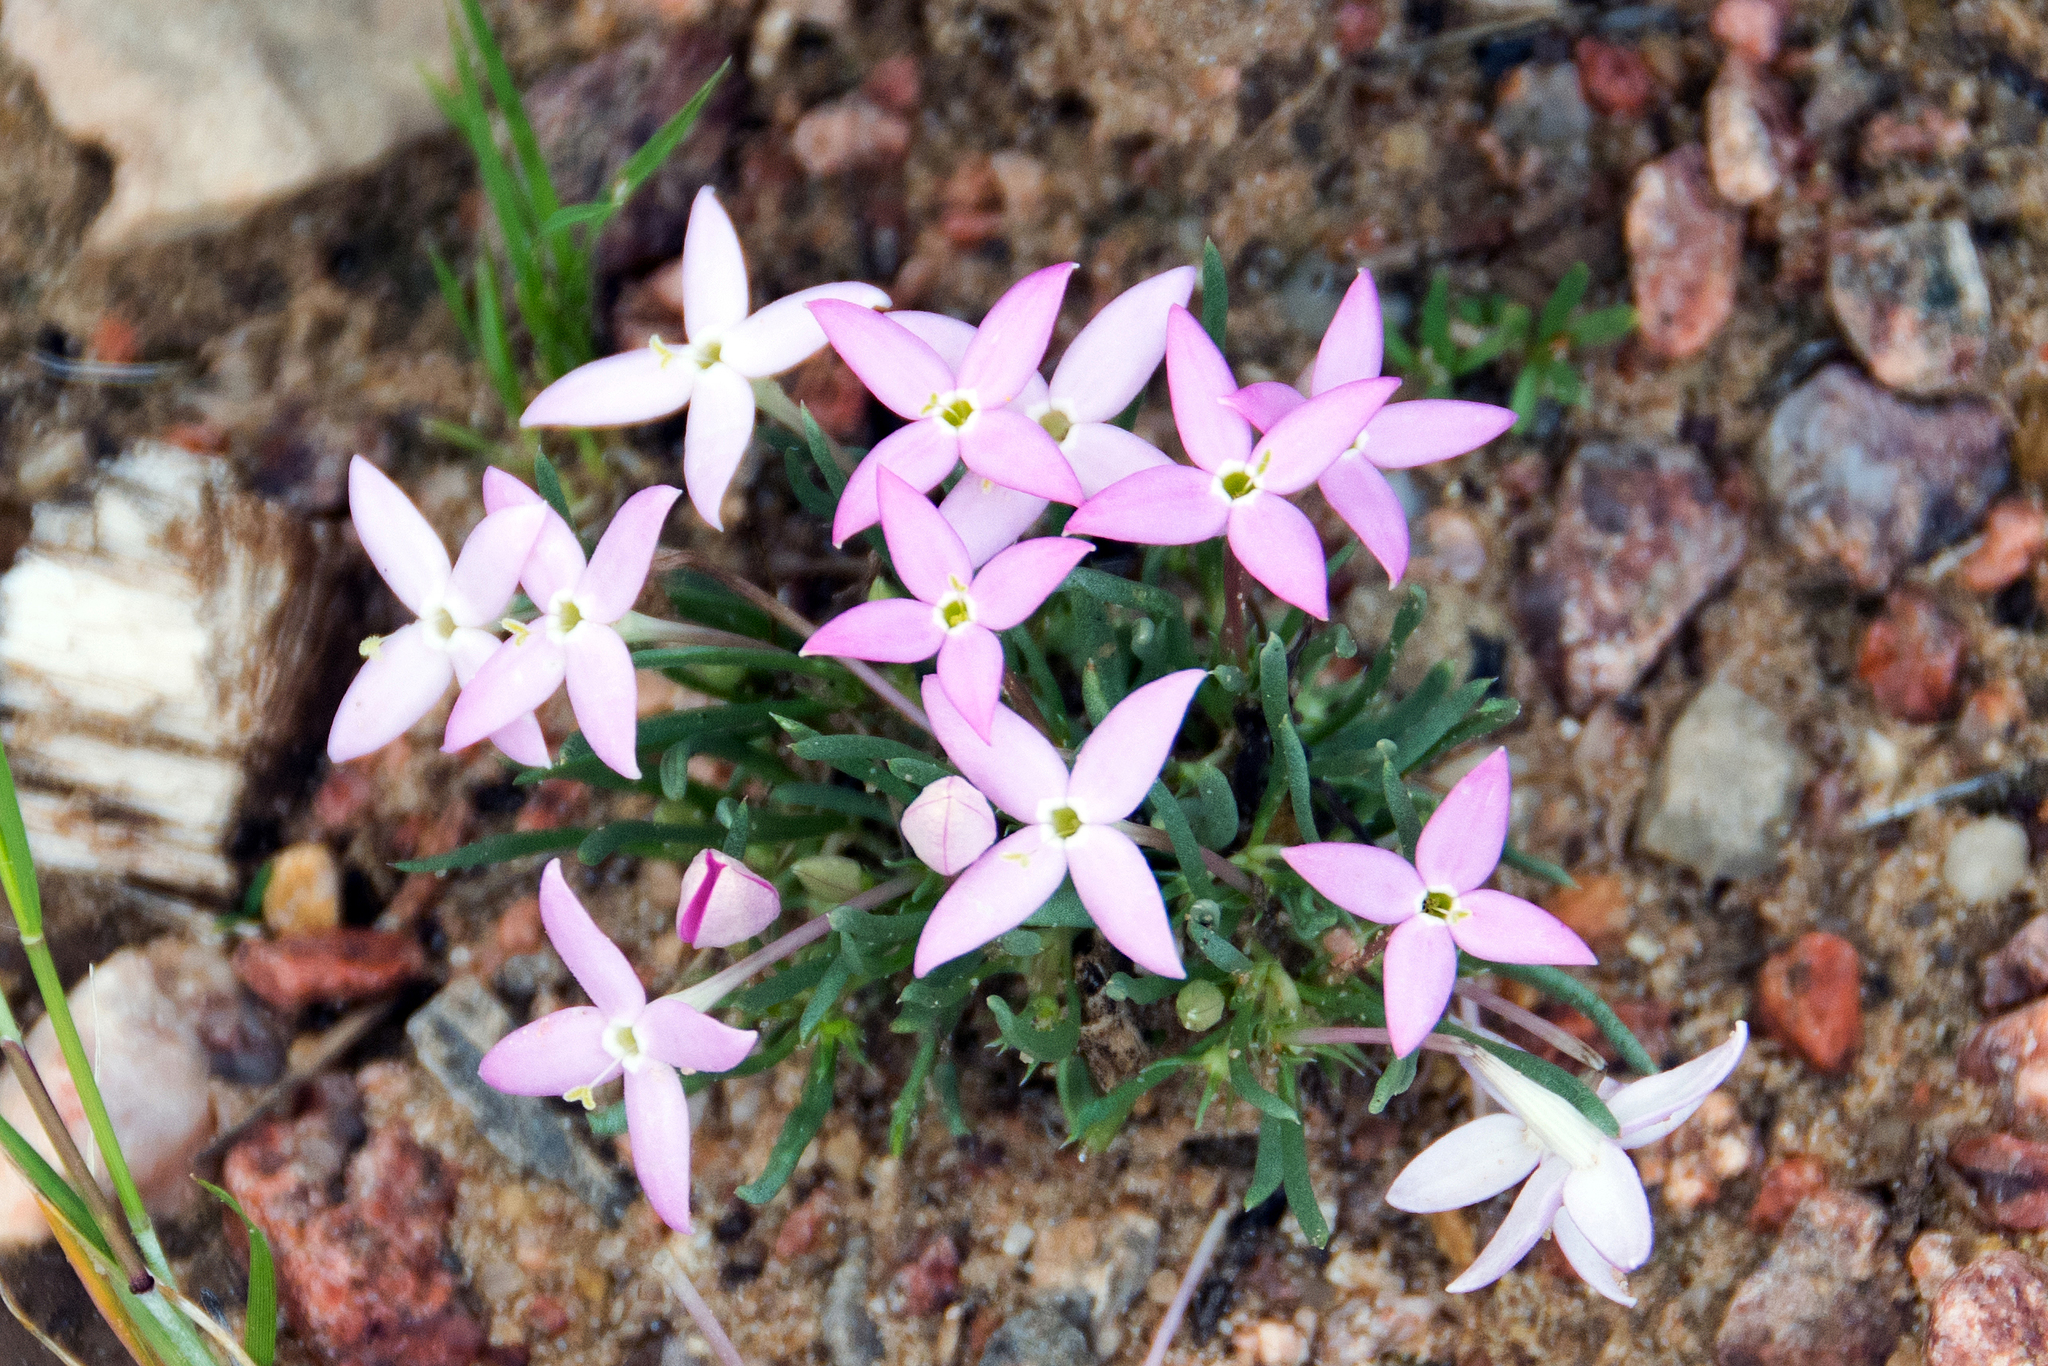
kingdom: Plantae
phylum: Tracheophyta
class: Magnoliopsida
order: Gentianales
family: Rubiaceae
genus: Houstonia
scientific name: Houstonia rubra
